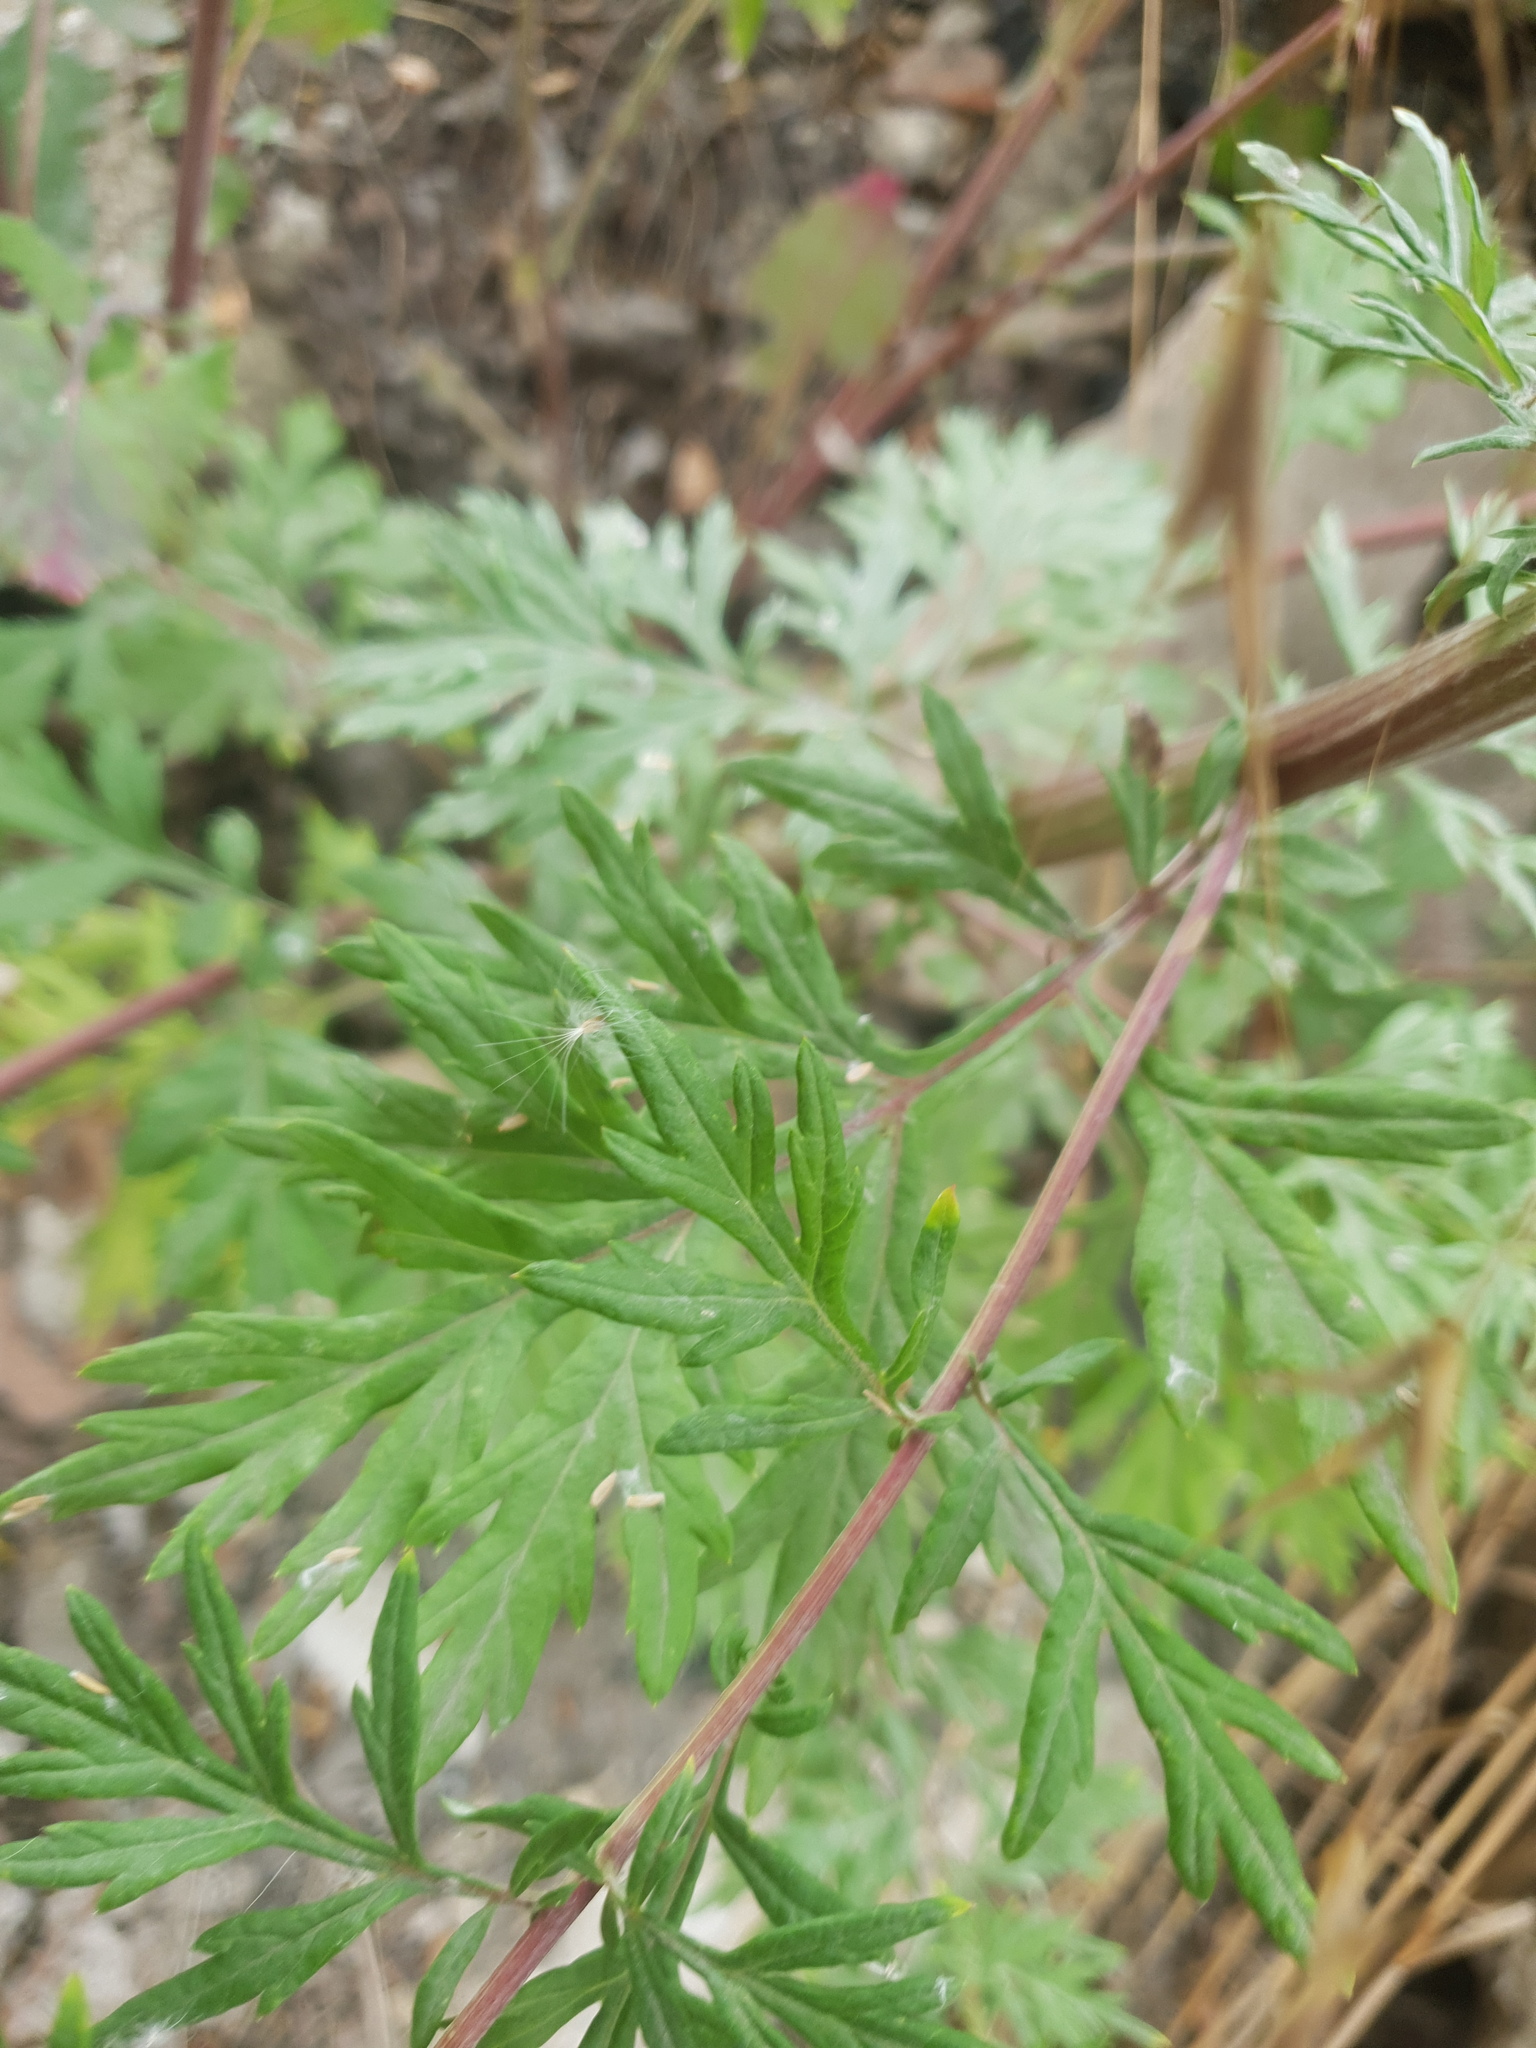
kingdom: Plantae
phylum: Tracheophyta
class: Magnoliopsida
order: Asterales
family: Asteraceae
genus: Artemisia
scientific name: Artemisia vulgaris
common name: Mugwort
